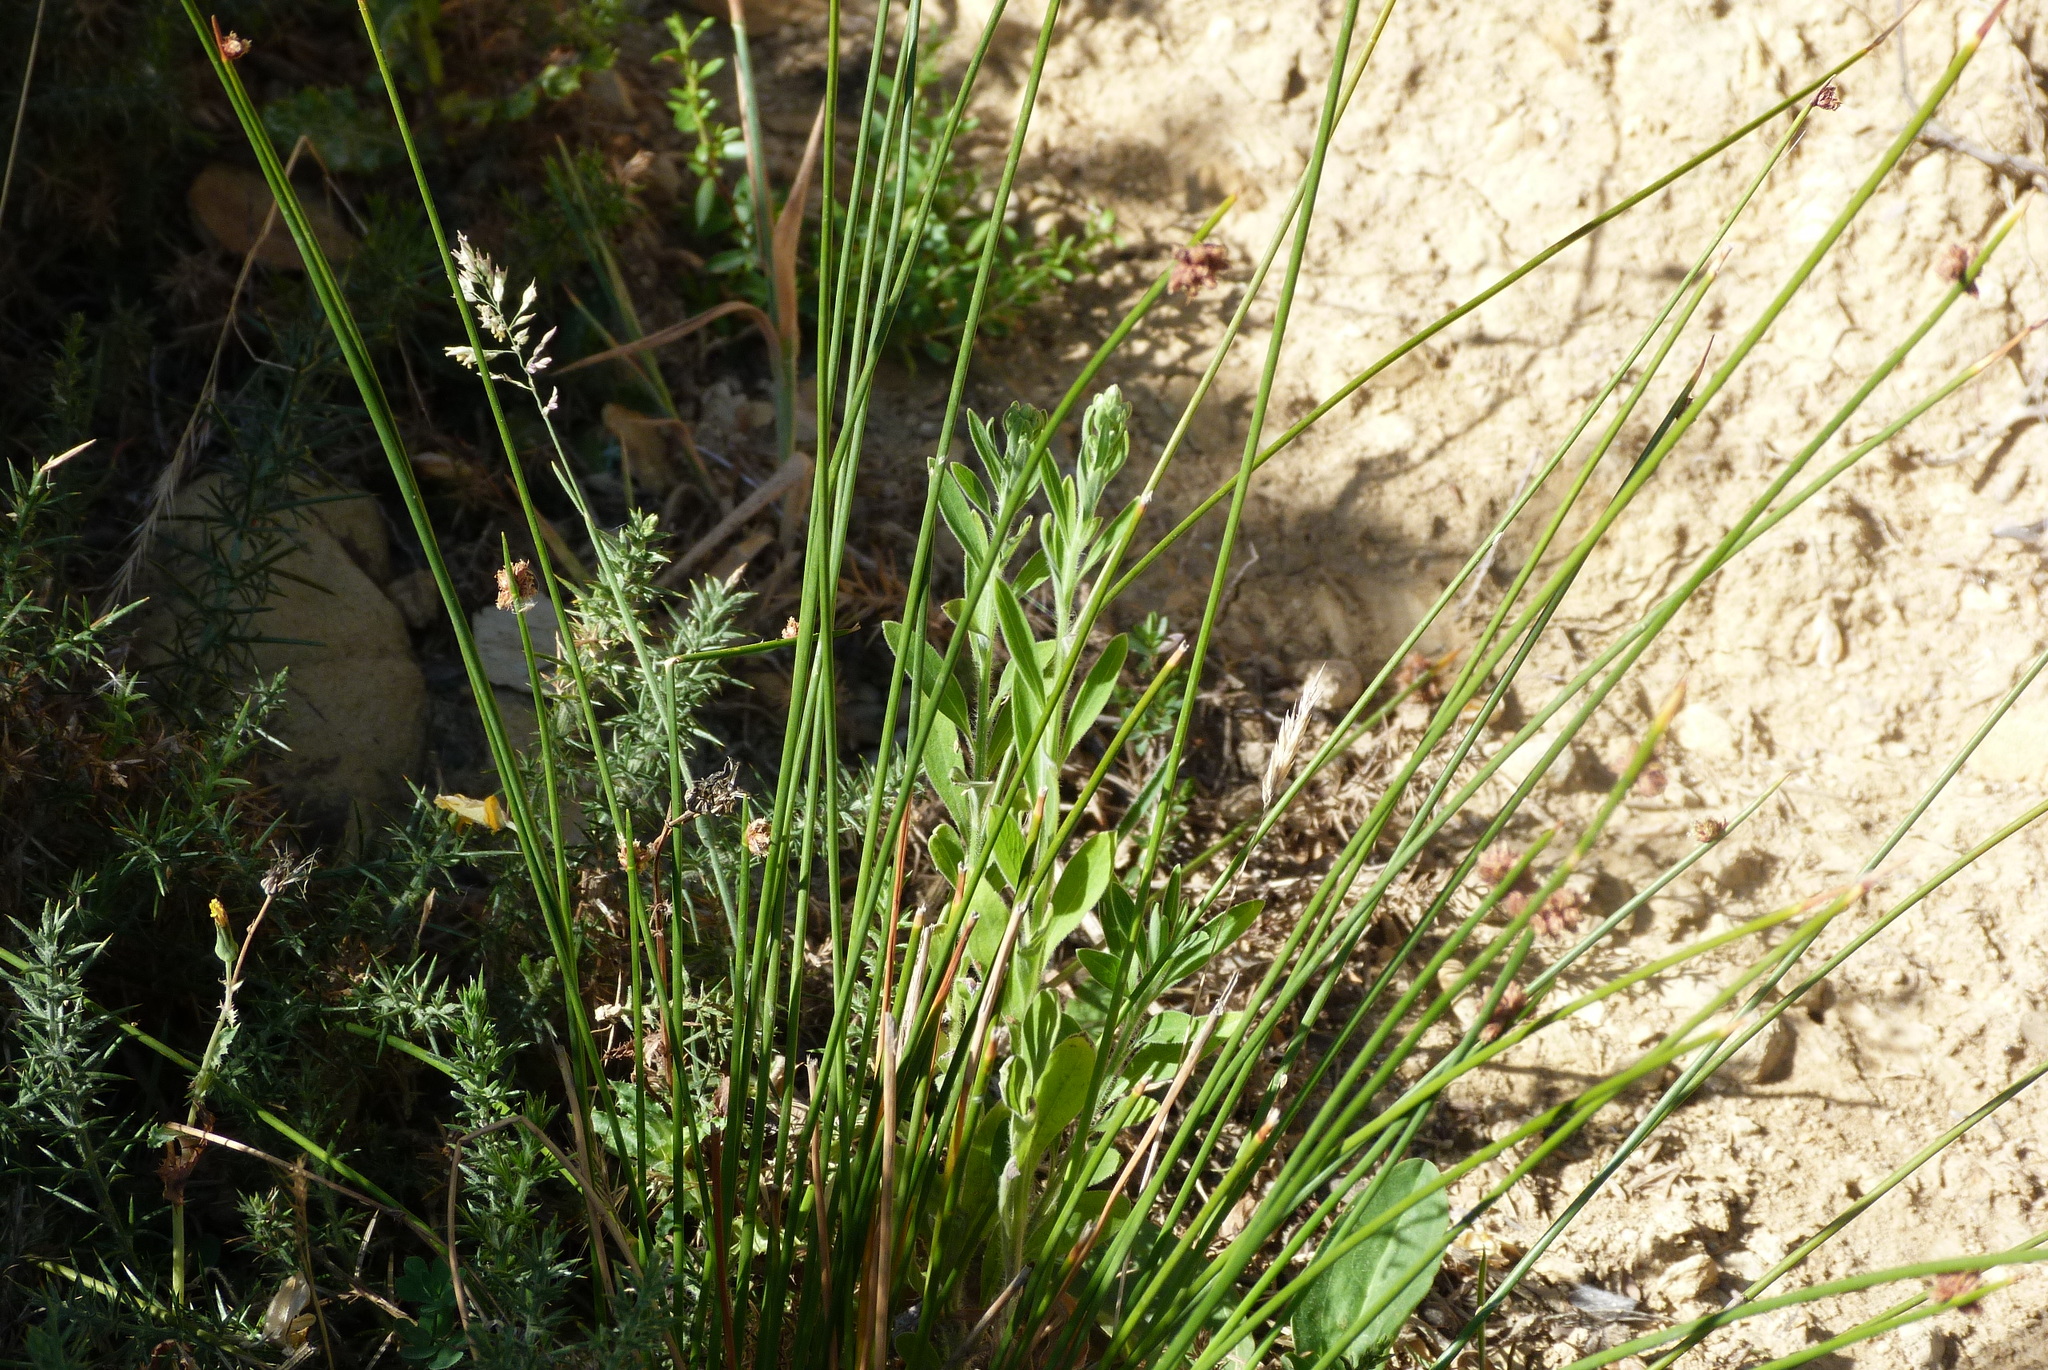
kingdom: Plantae
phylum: Tracheophyta
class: Liliopsida
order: Poales
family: Cyperaceae
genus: Ficinia
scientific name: Ficinia nodosa
